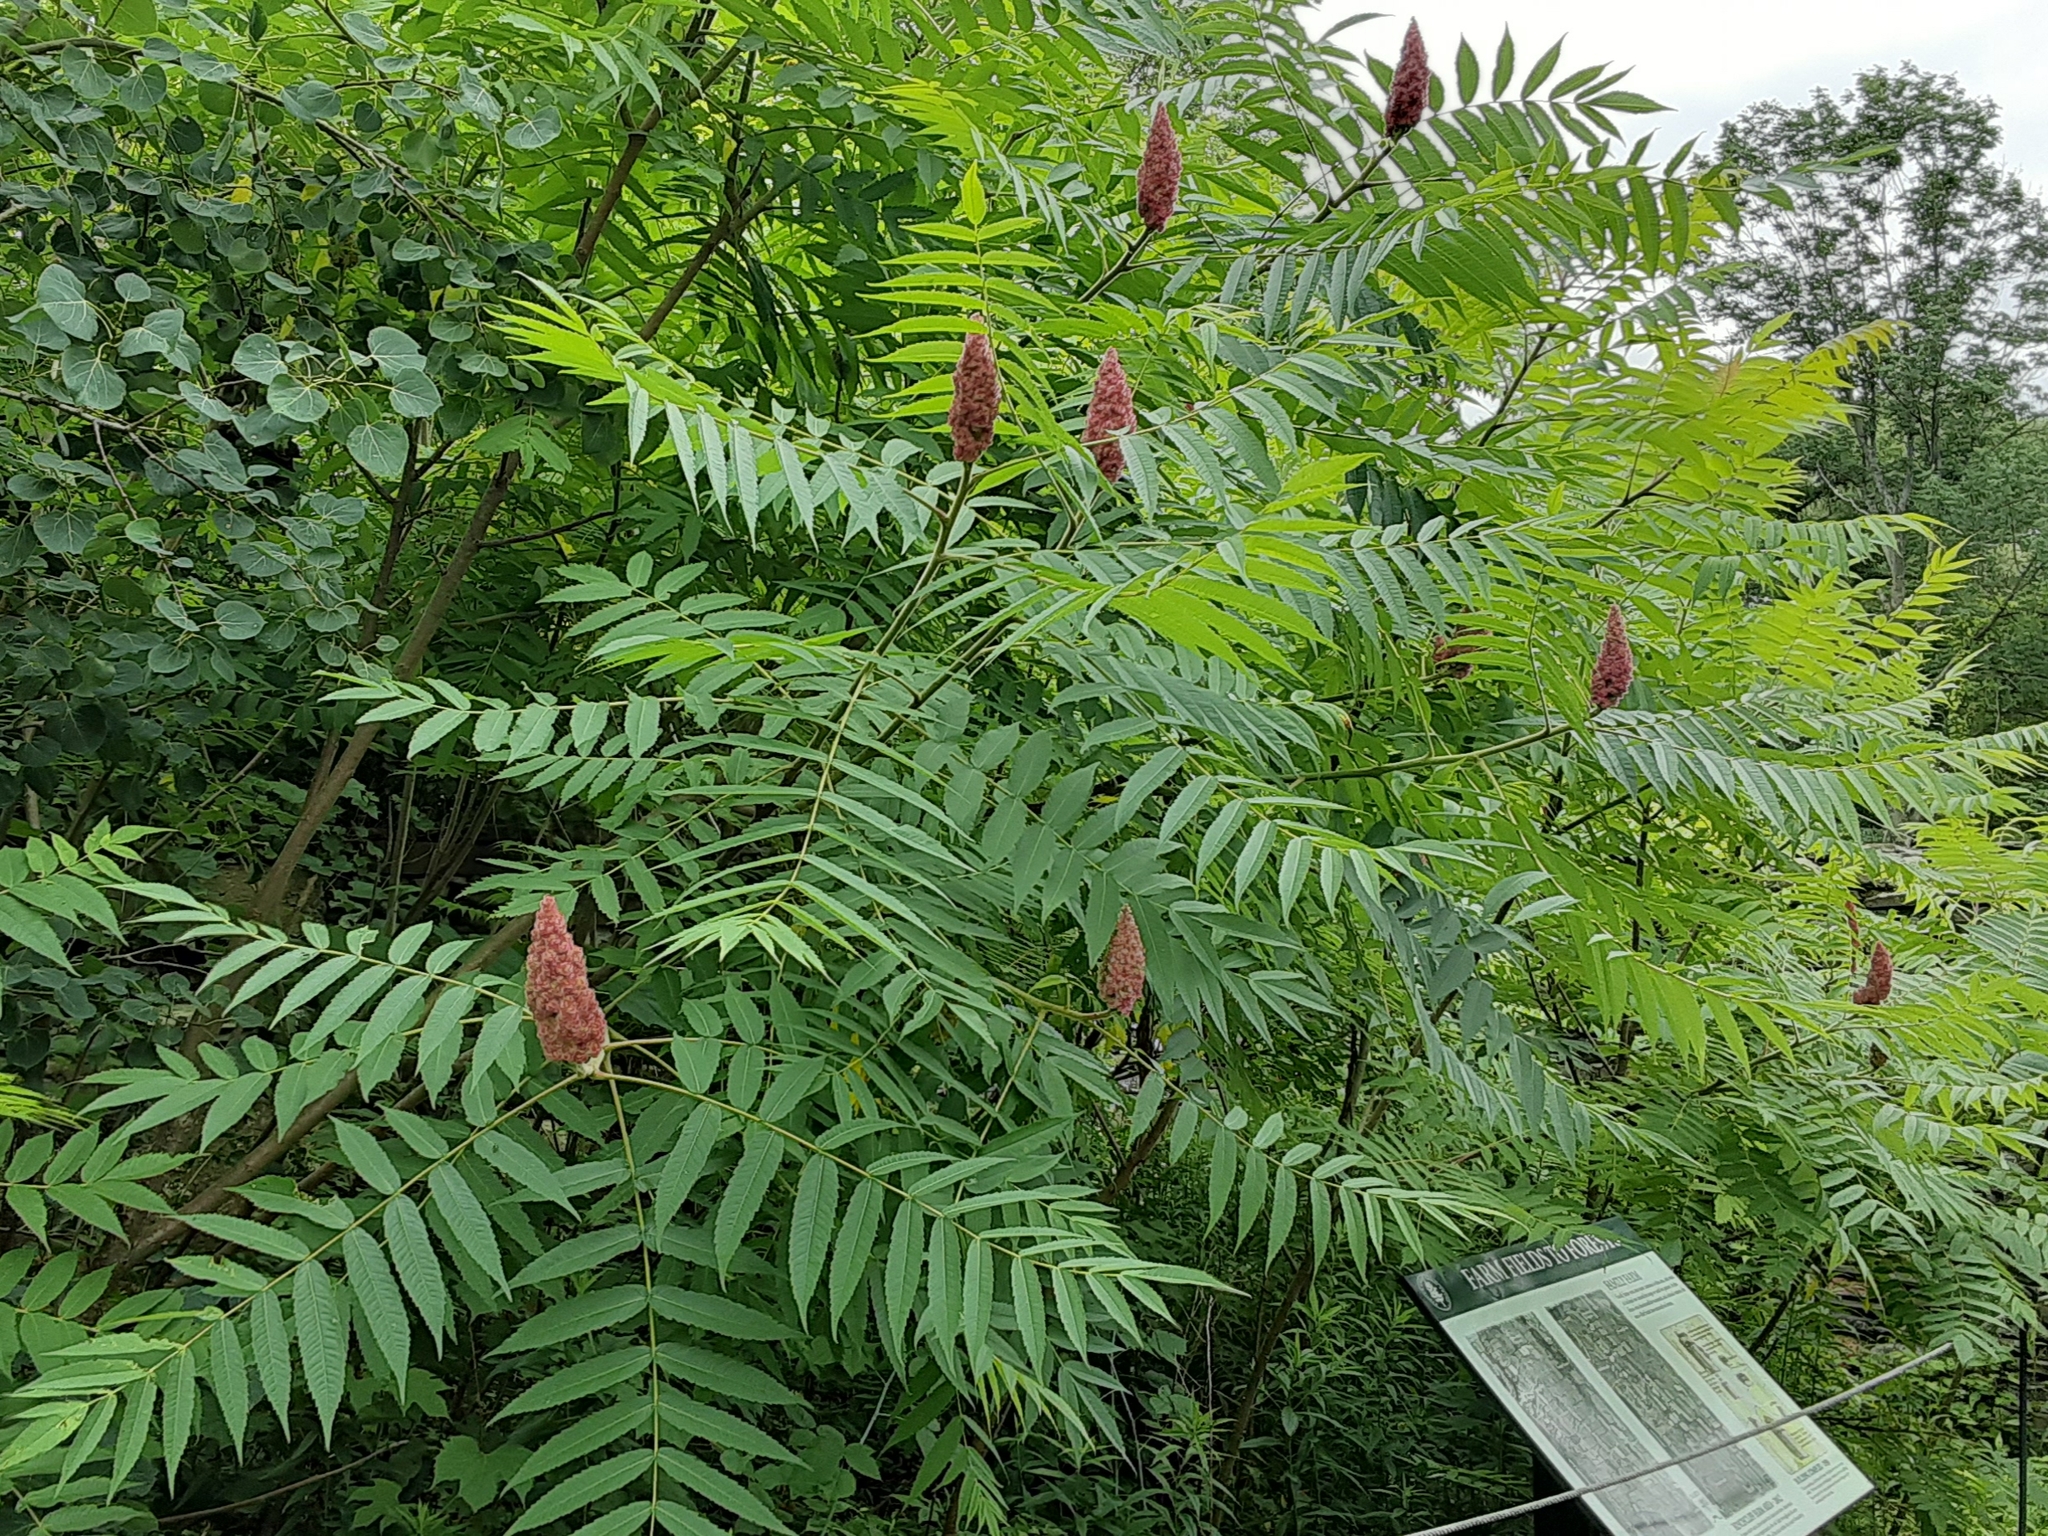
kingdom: Plantae
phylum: Tracheophyta
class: Magnoliopsida
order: Sapindales
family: Anacardiaceae
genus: Rhus
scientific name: Rhus typhina
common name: Staghorn sumac
